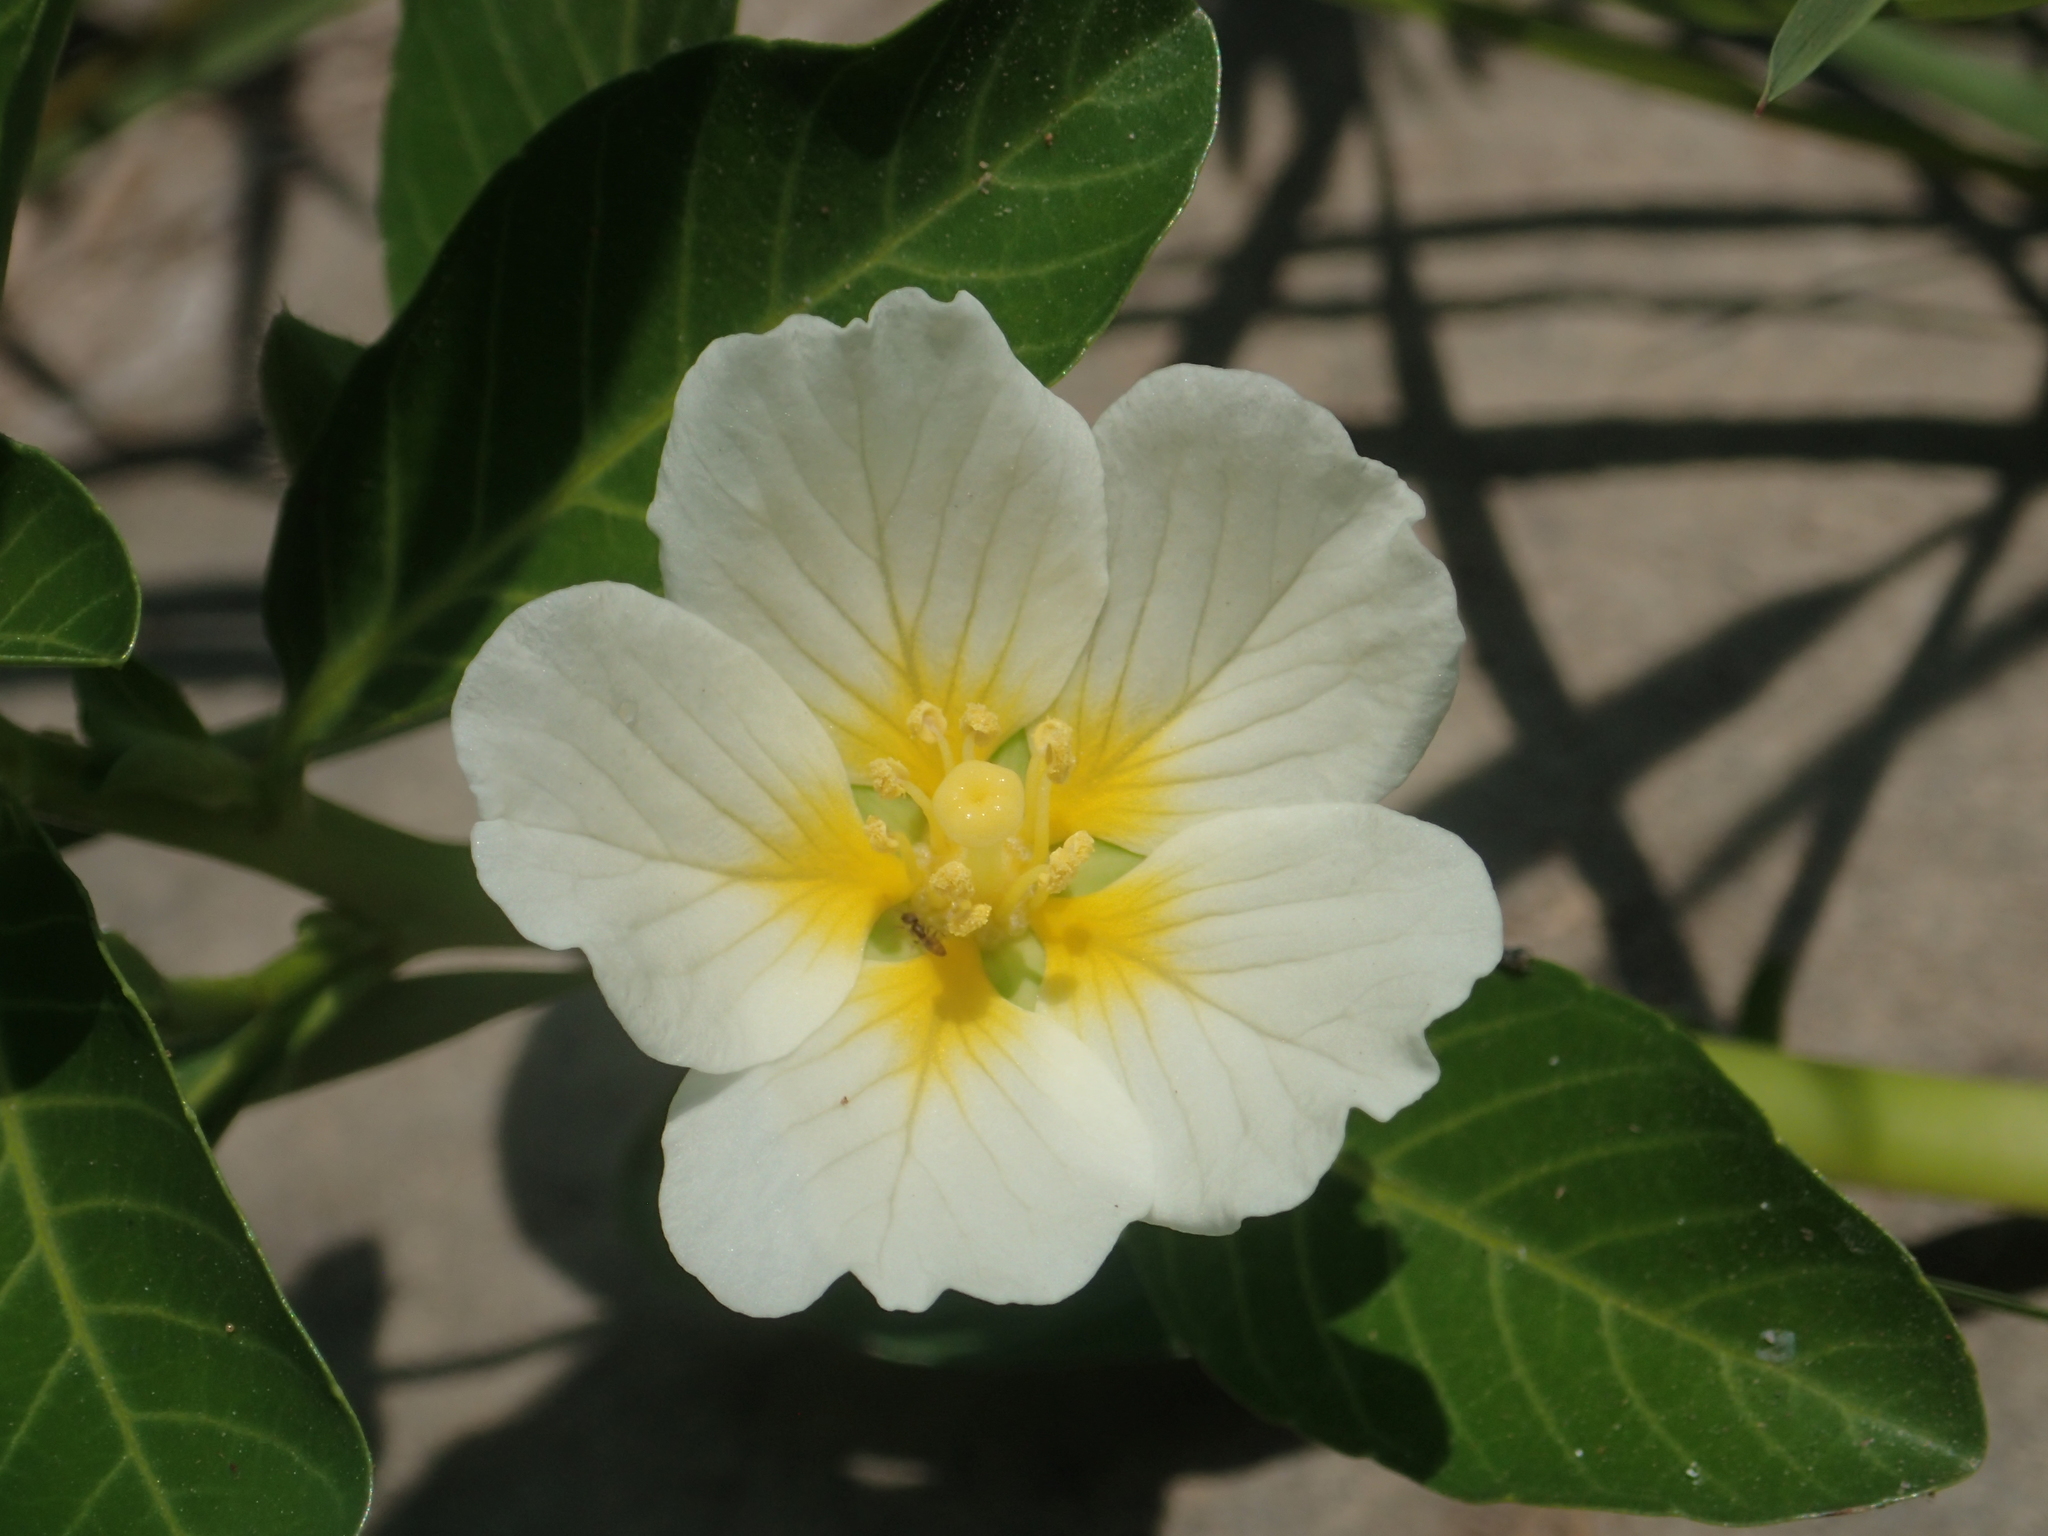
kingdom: Plantae
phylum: Tracheophyta
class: Magnoliopsida
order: Myrtales
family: Onagraceae
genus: Ludwigia
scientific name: Ludwigia adscendens
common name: Creeping water primrose
